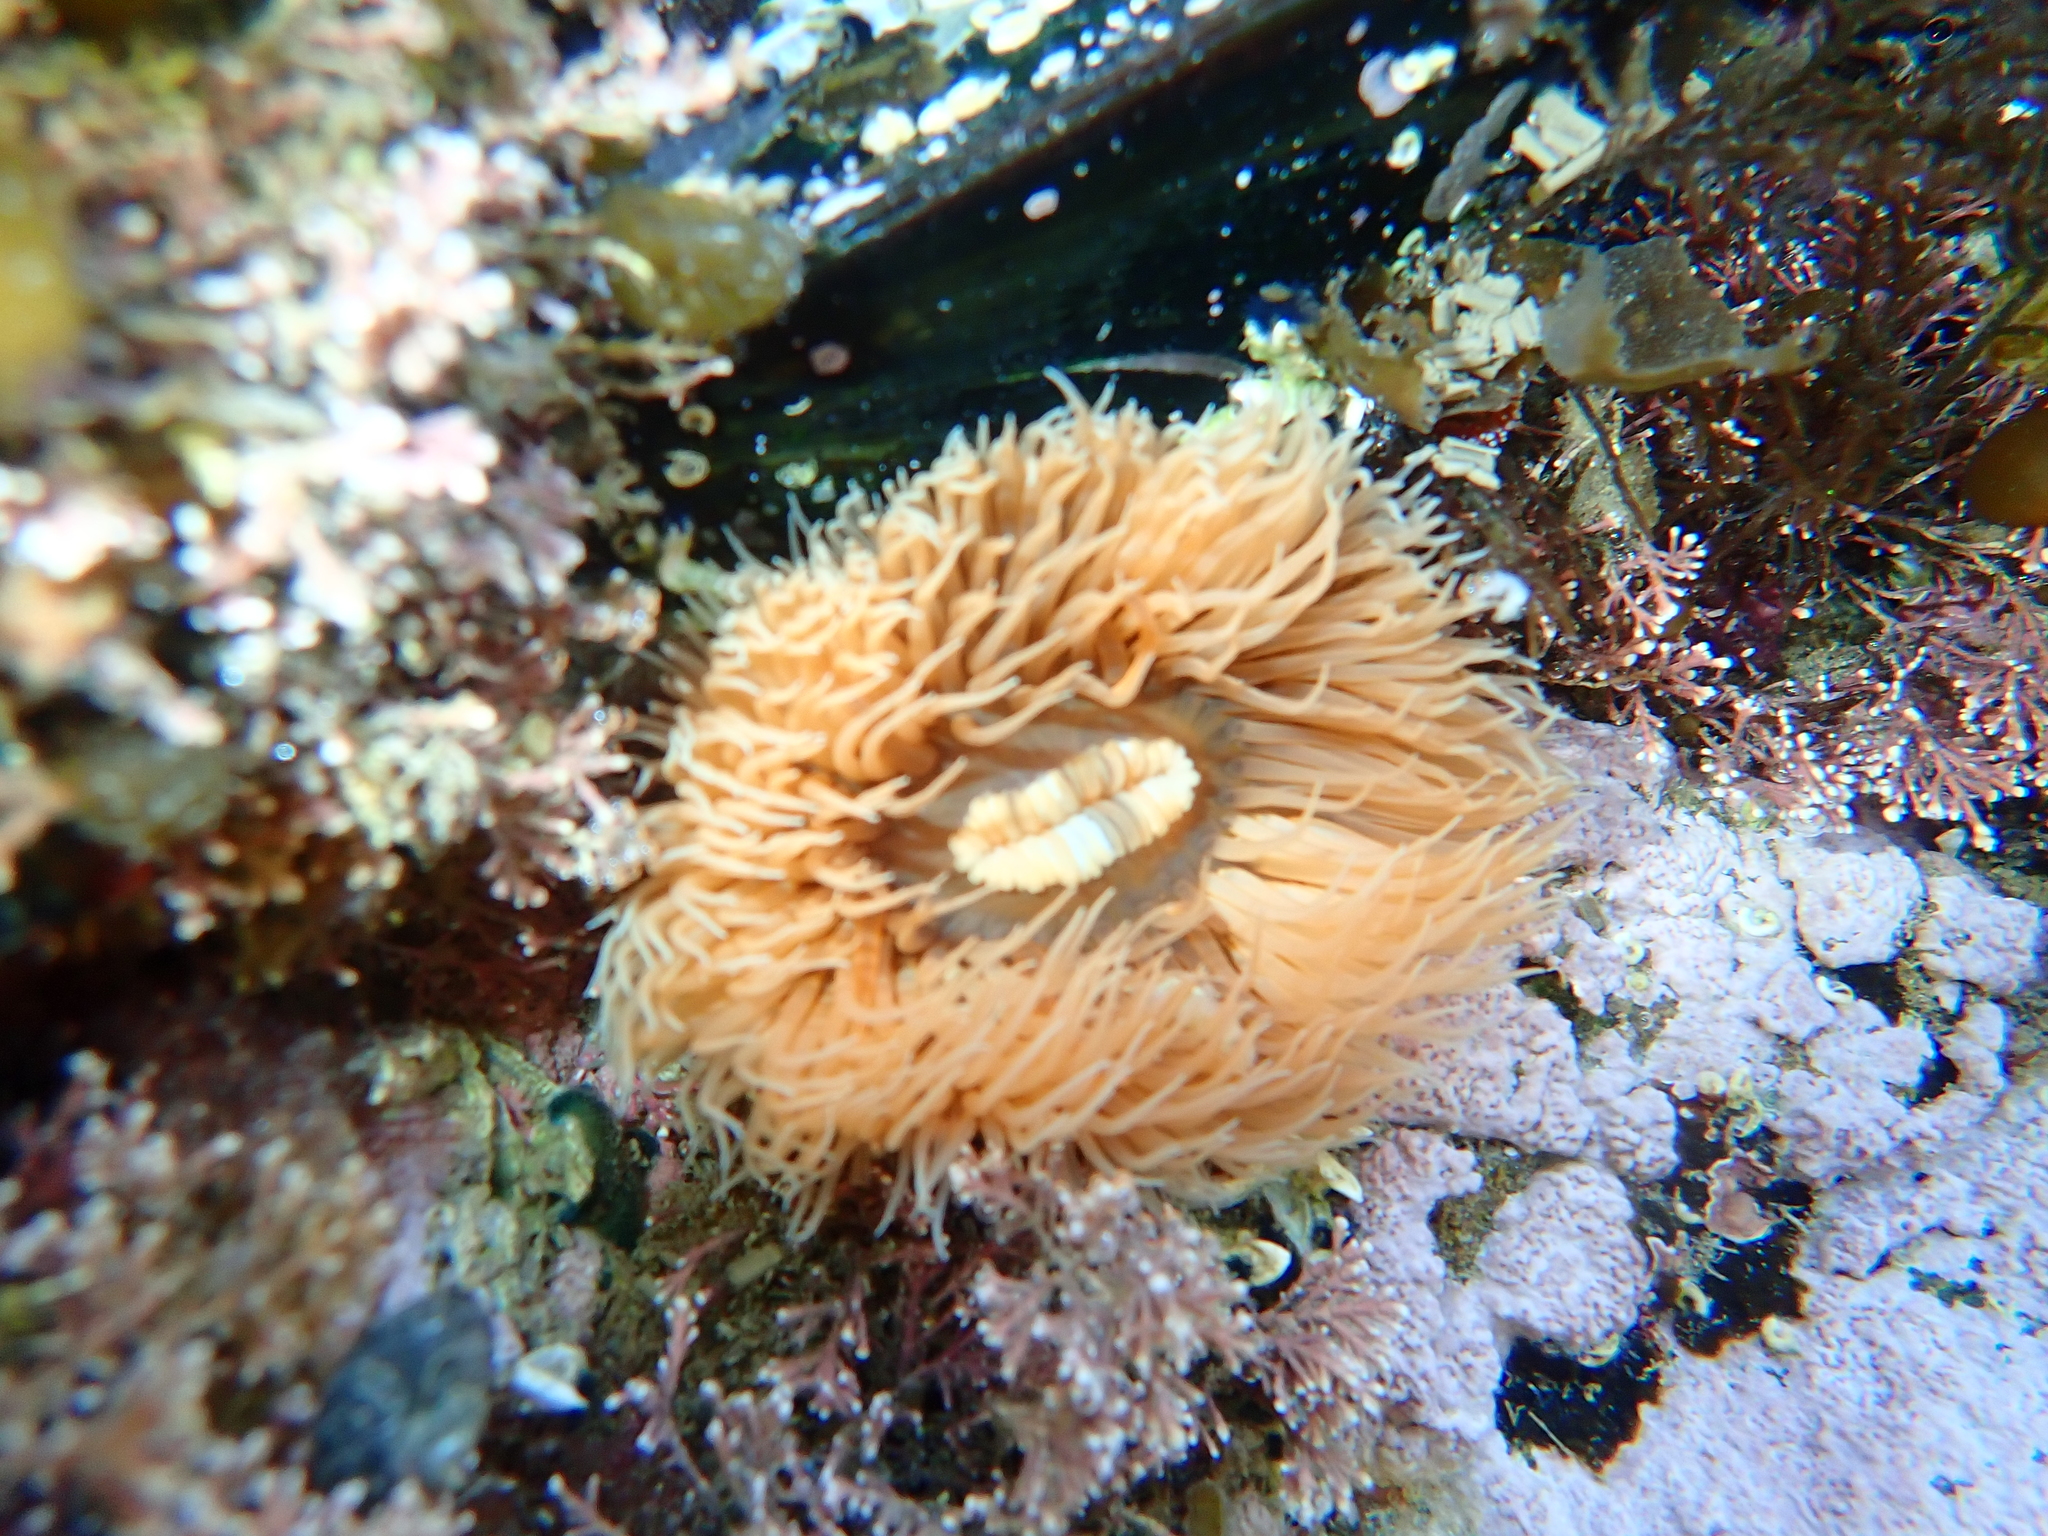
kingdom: Animalia
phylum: Cnidaria
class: Anthozoa
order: Actiniaria
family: Diadumenidae
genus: Diadumene
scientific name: Diadumene neozelanica
